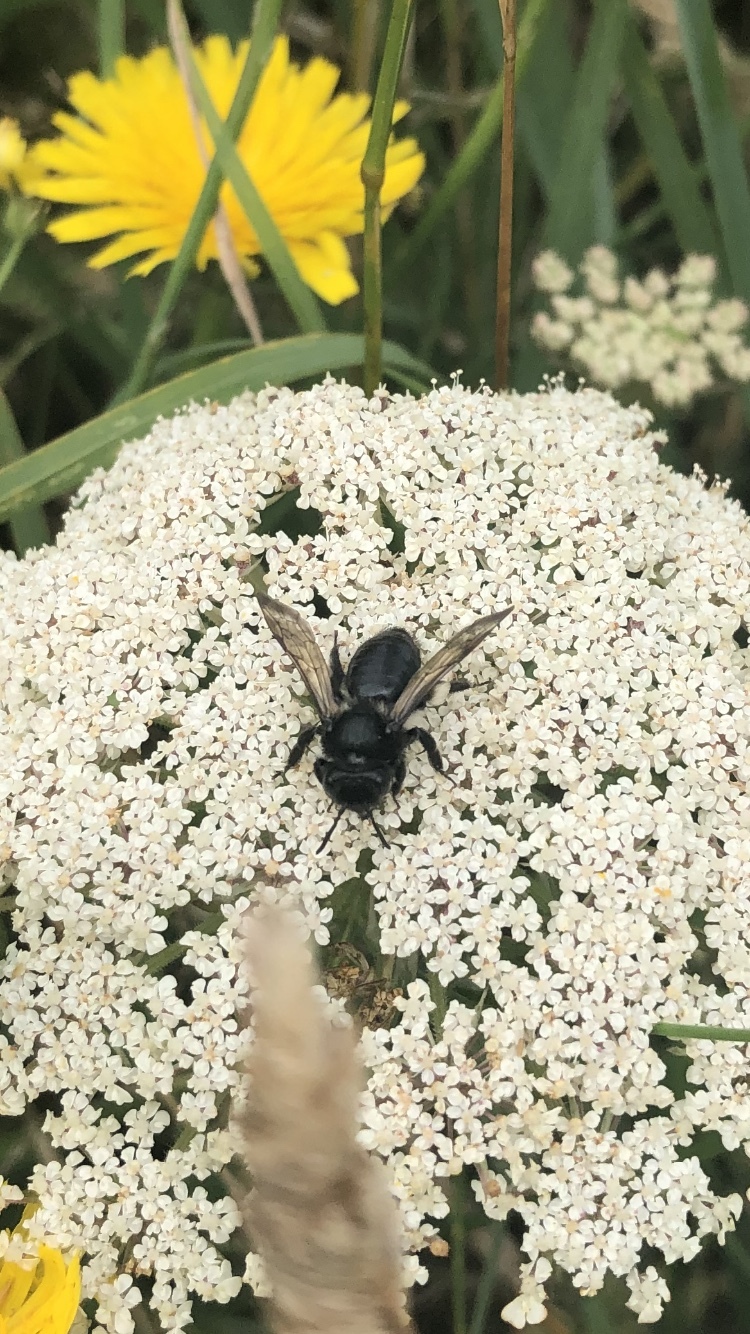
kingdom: Animalia
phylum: Arthropoda
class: Insecta
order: Hymenoptera
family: Andrenidae
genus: Andrena
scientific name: Andrena pilipes
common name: Black mining bee
